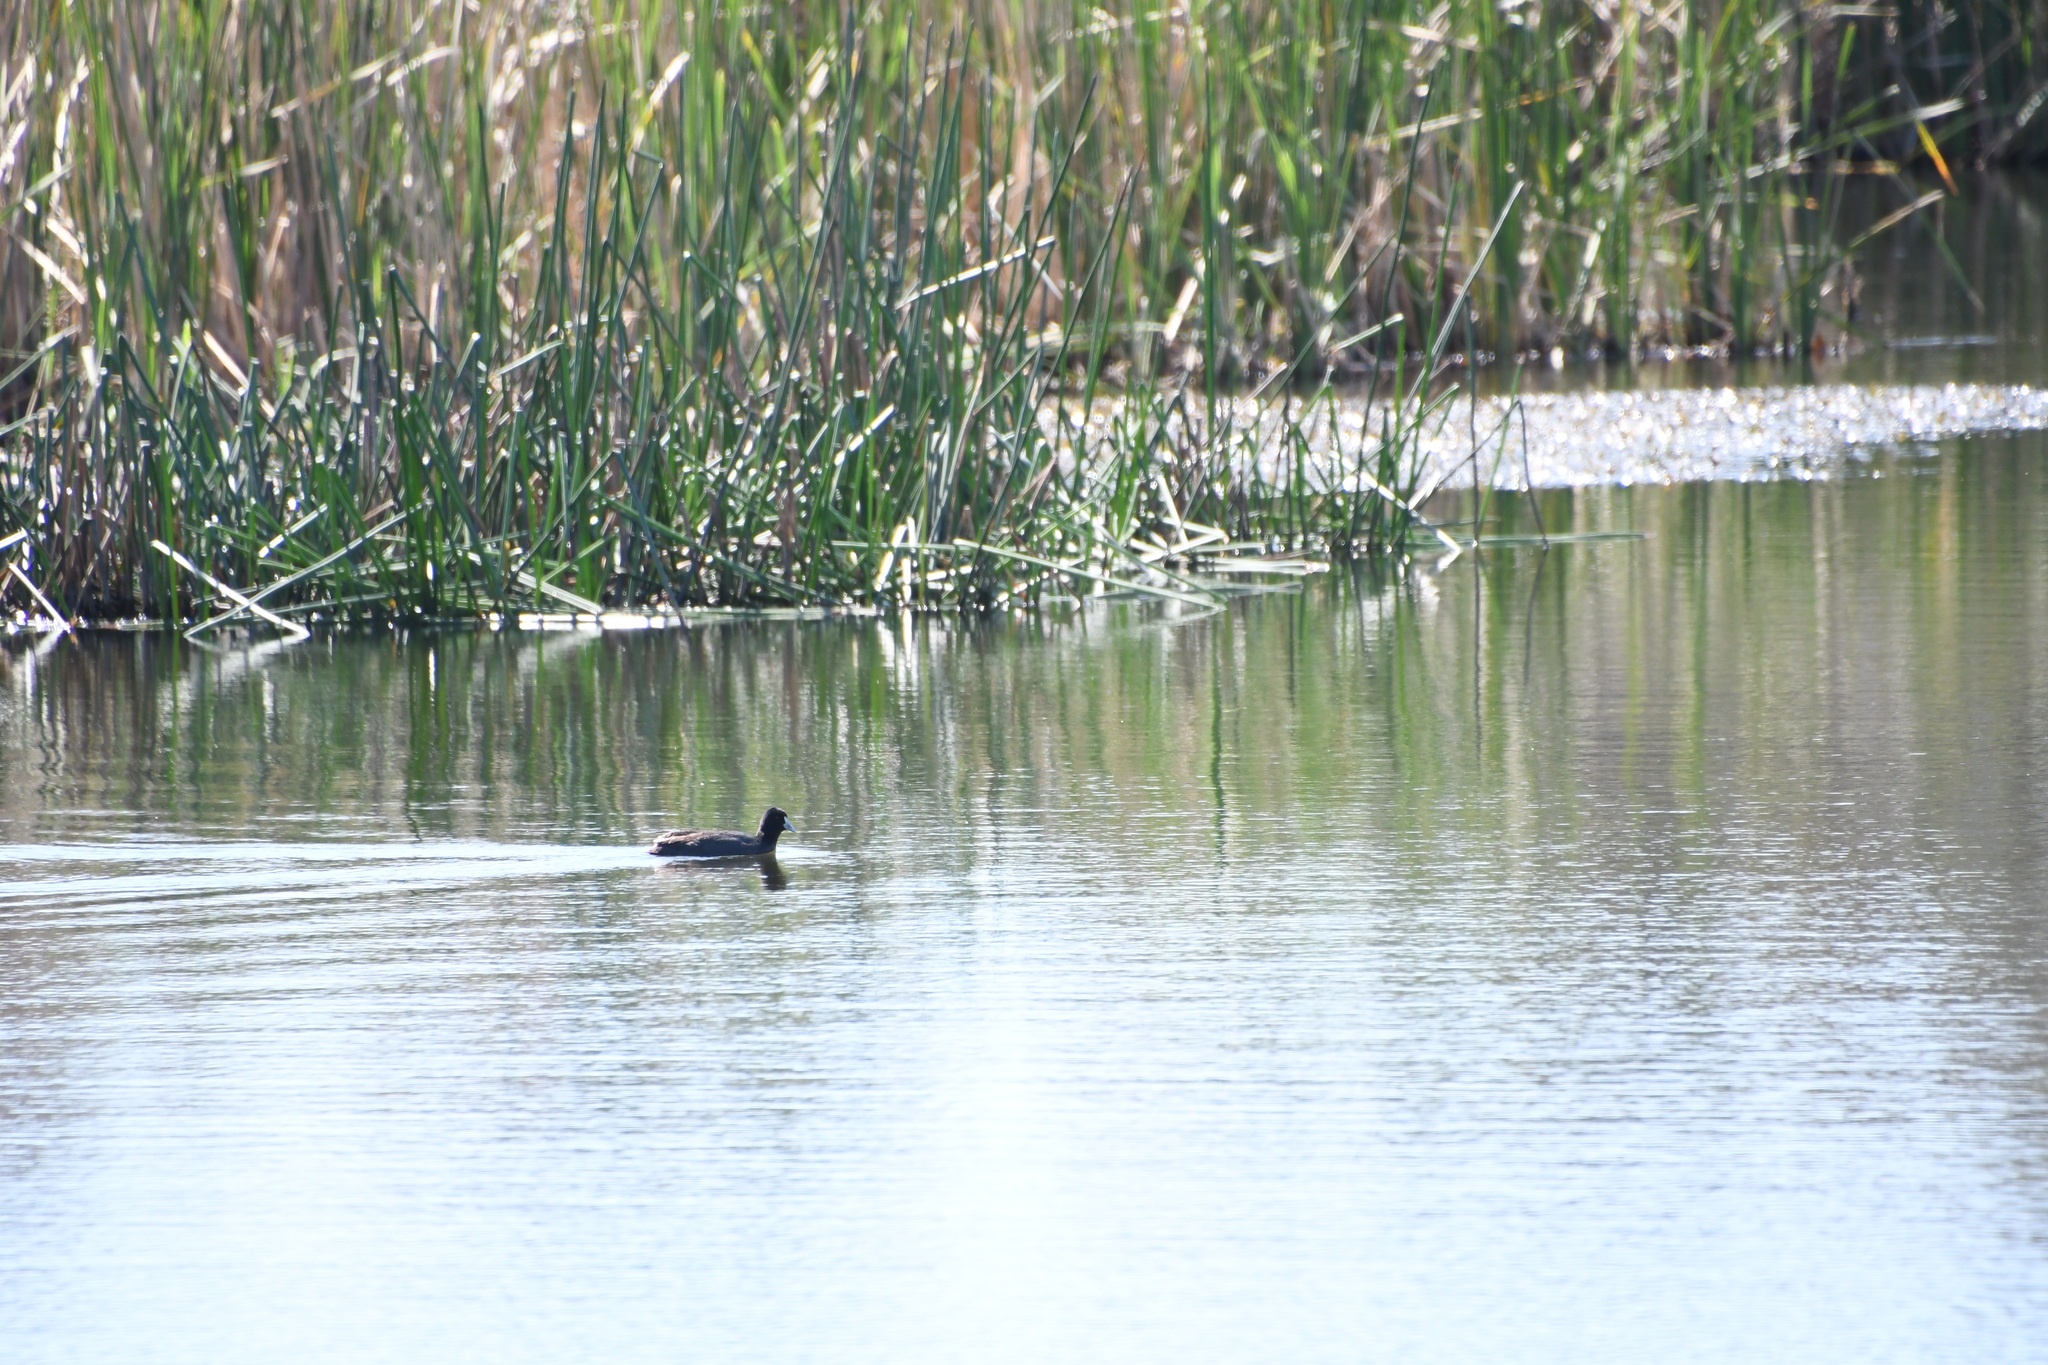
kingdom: Animalia
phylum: Chordata
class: Aves
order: Gruiformes
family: Rallidae
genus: Fulica
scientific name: Fulica atra
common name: Eurasian coot
